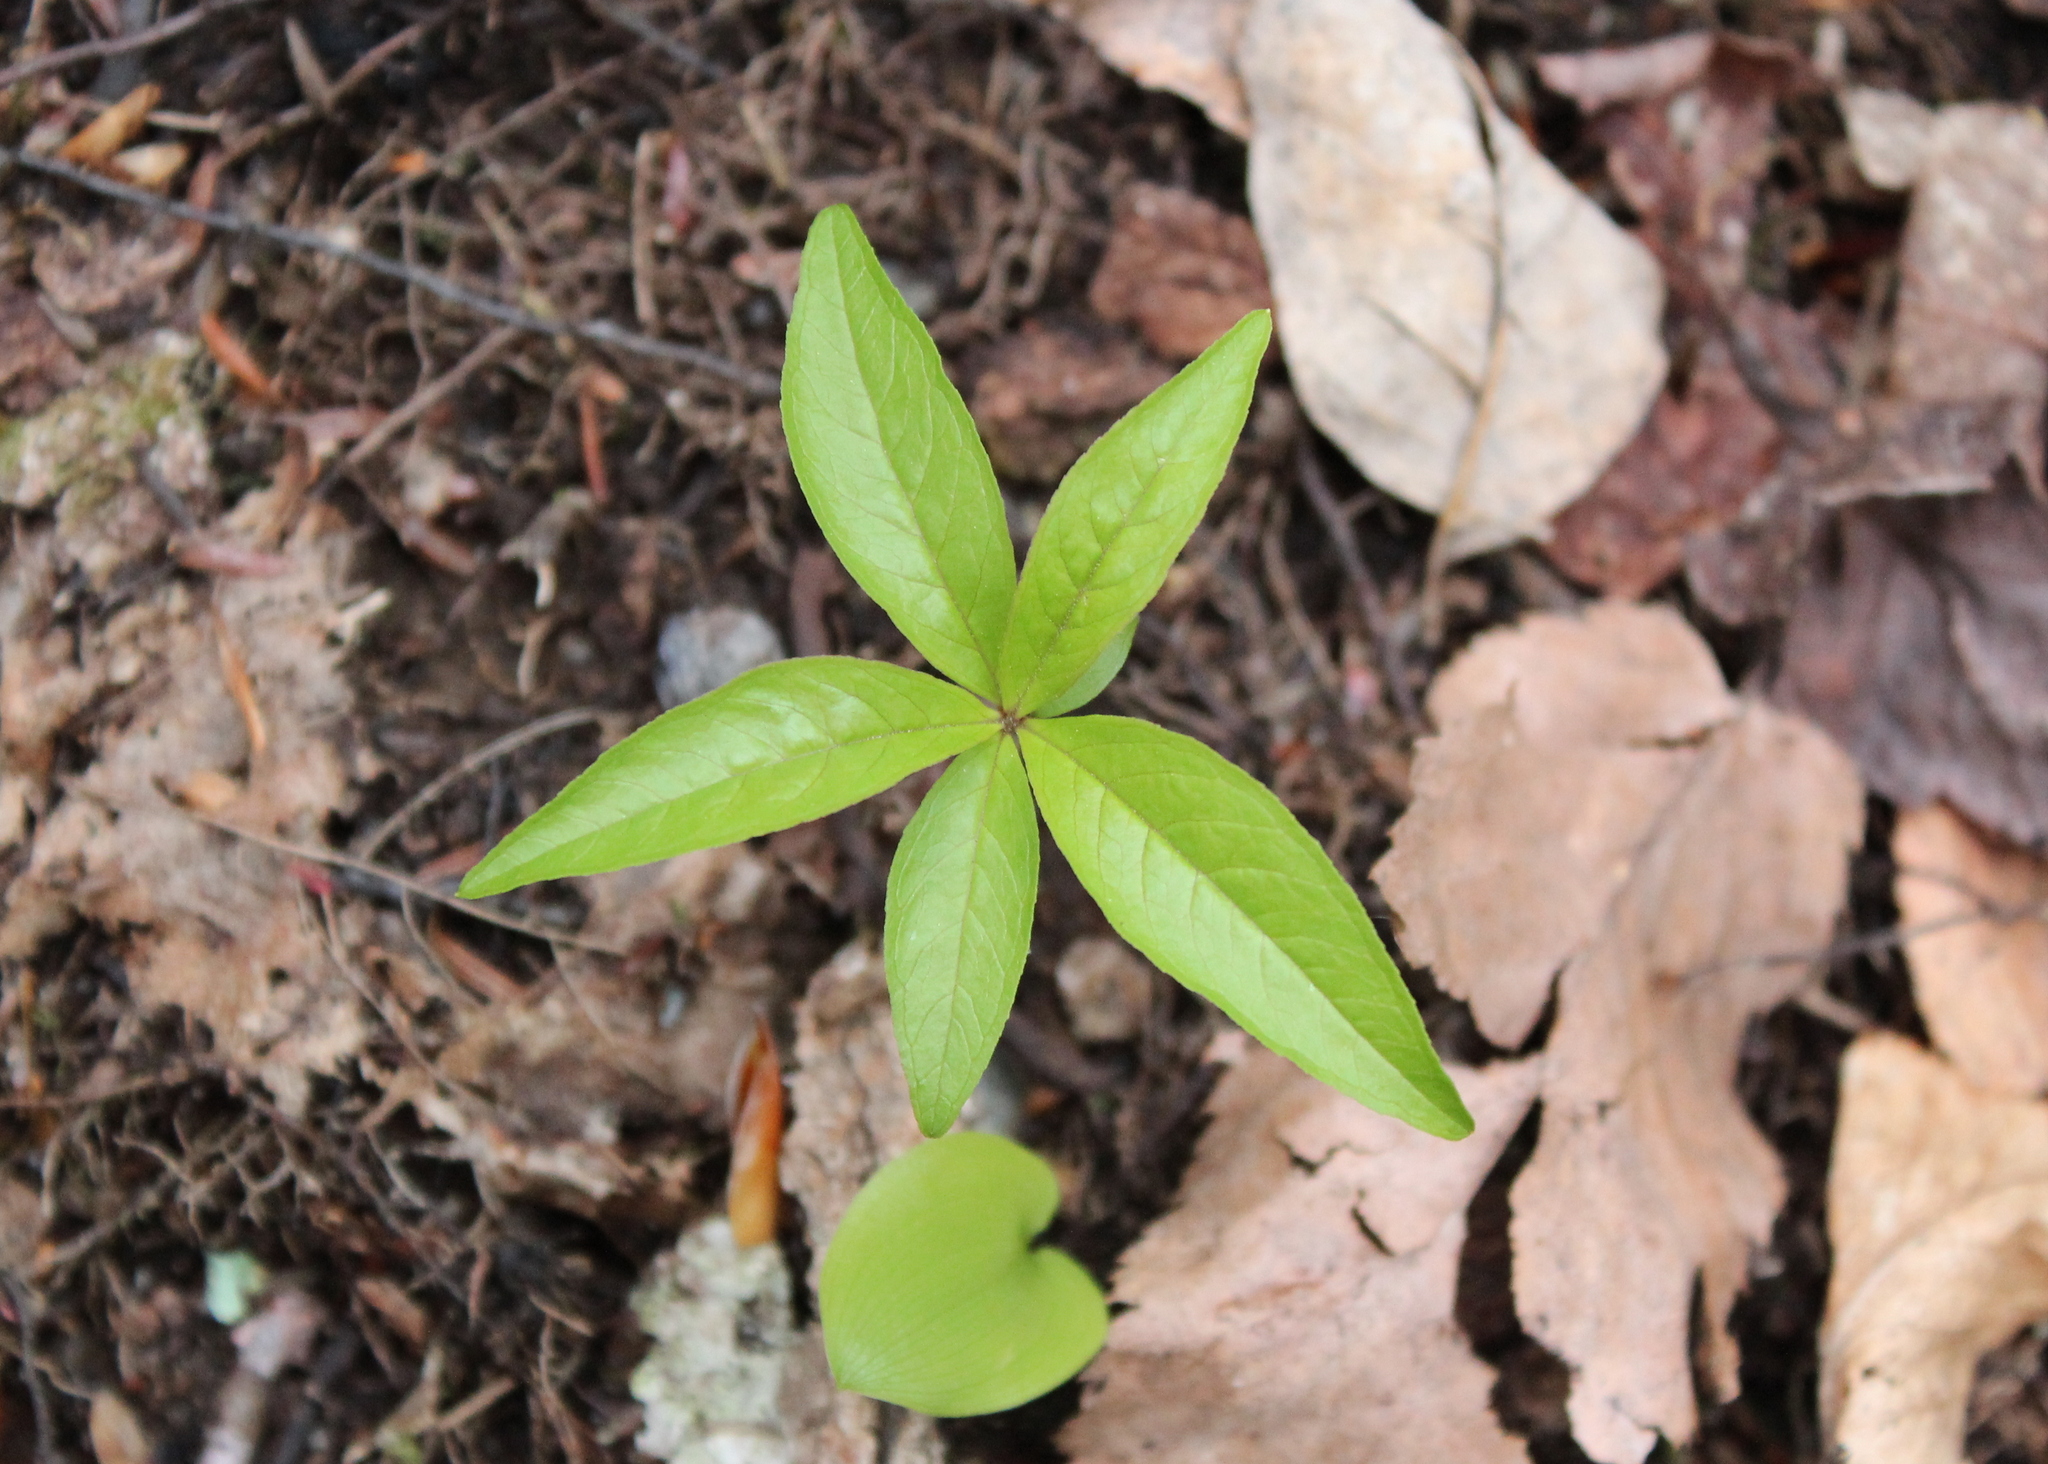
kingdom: Plantae
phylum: Tracheophyta
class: Magnoliopsida
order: Ericales
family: Primulaceae
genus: Lysimachia
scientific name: Lysimachia borealis
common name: American starflower
